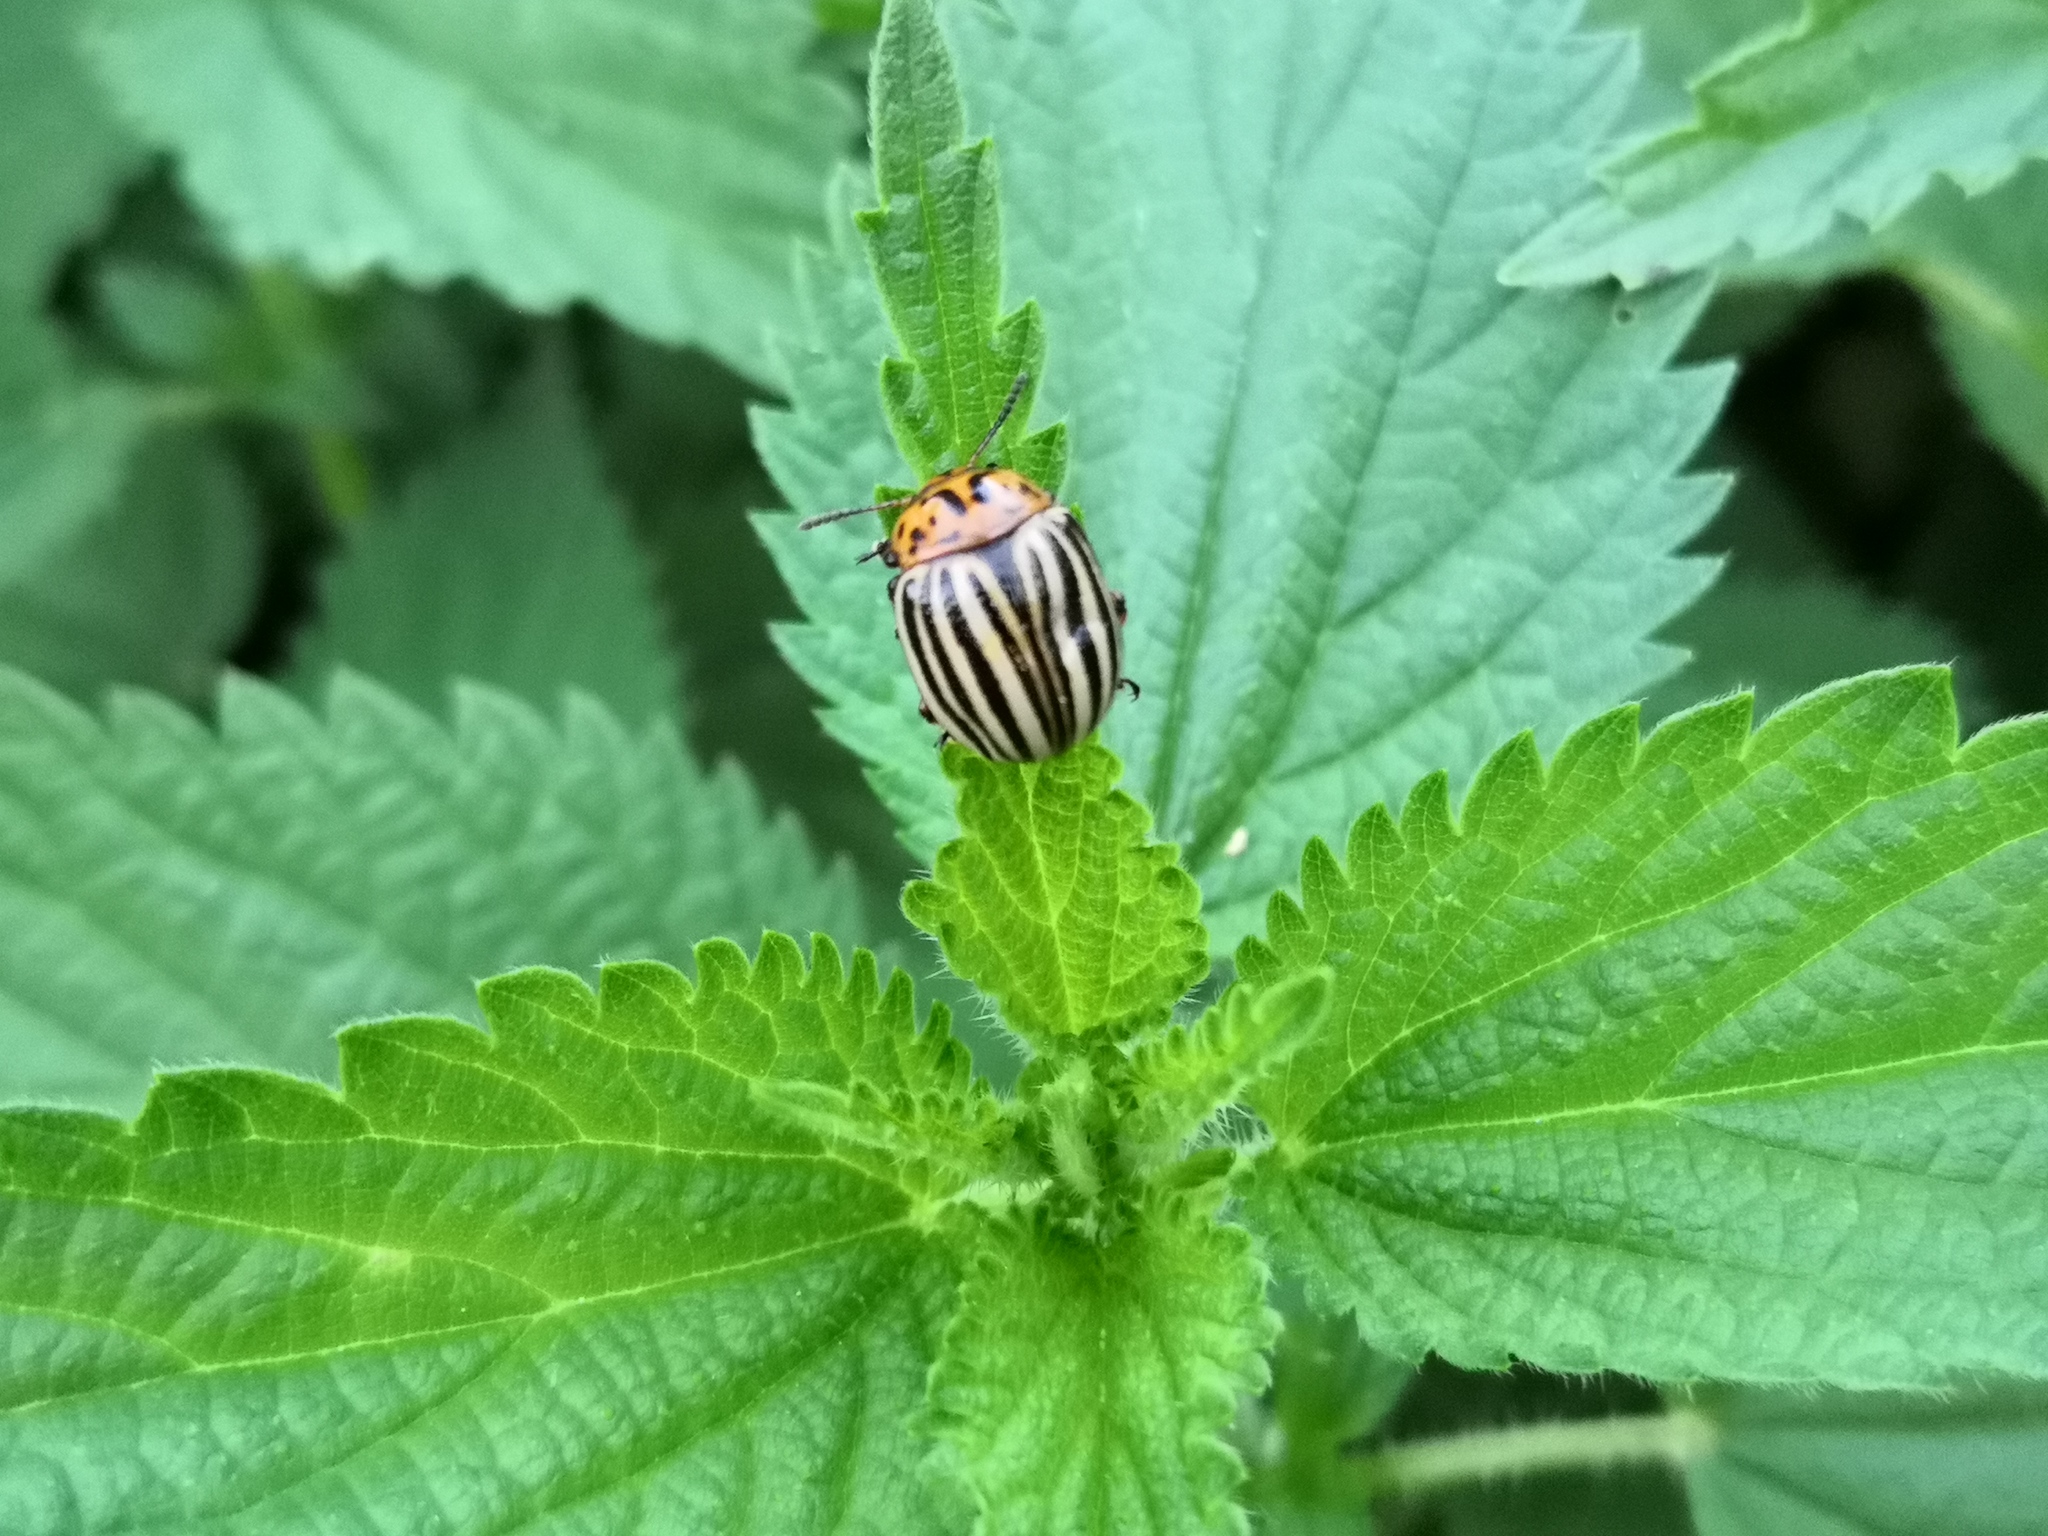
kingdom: Animalia
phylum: Arthropoda
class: Insecta
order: Coleoptera
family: Chrysomelidae
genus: Leptinotarsa
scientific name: Leptinotarsa decemlineata
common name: Colorado potato beetle
